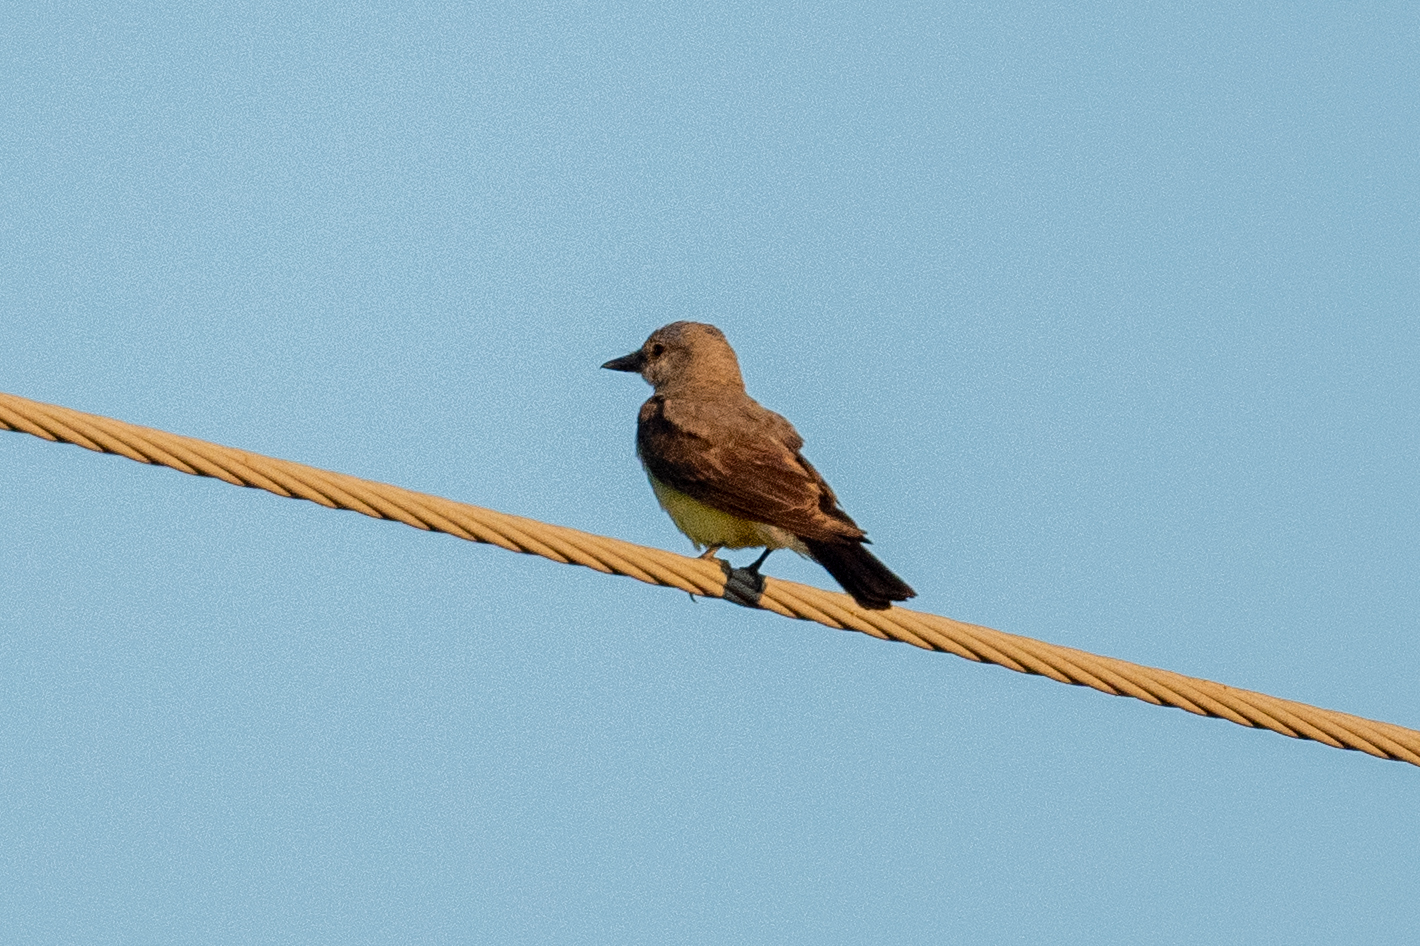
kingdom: Animalia
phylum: Chordata
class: Aves
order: Passeriformes
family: Tyrannidae
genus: Tyrannus
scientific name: Tyrannus verticalis
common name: Western kingbird
